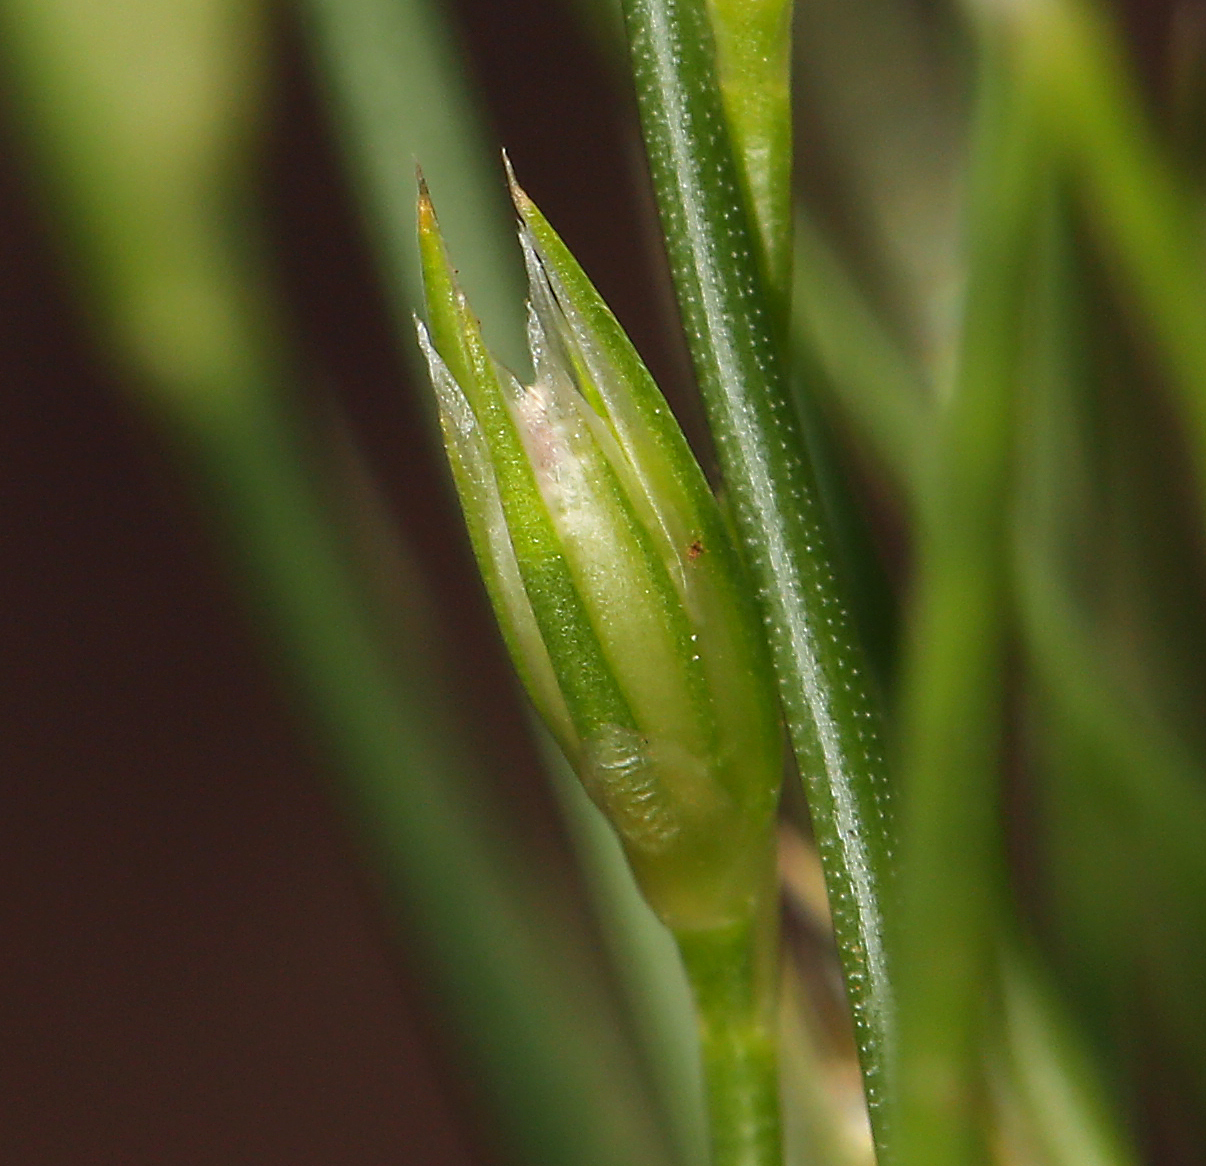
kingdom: Plantae
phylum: Tracheophyta
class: Liliopsida
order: Poales
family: Juncaceae
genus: Juncus
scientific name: Juncus bufonius
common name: Toad rush
